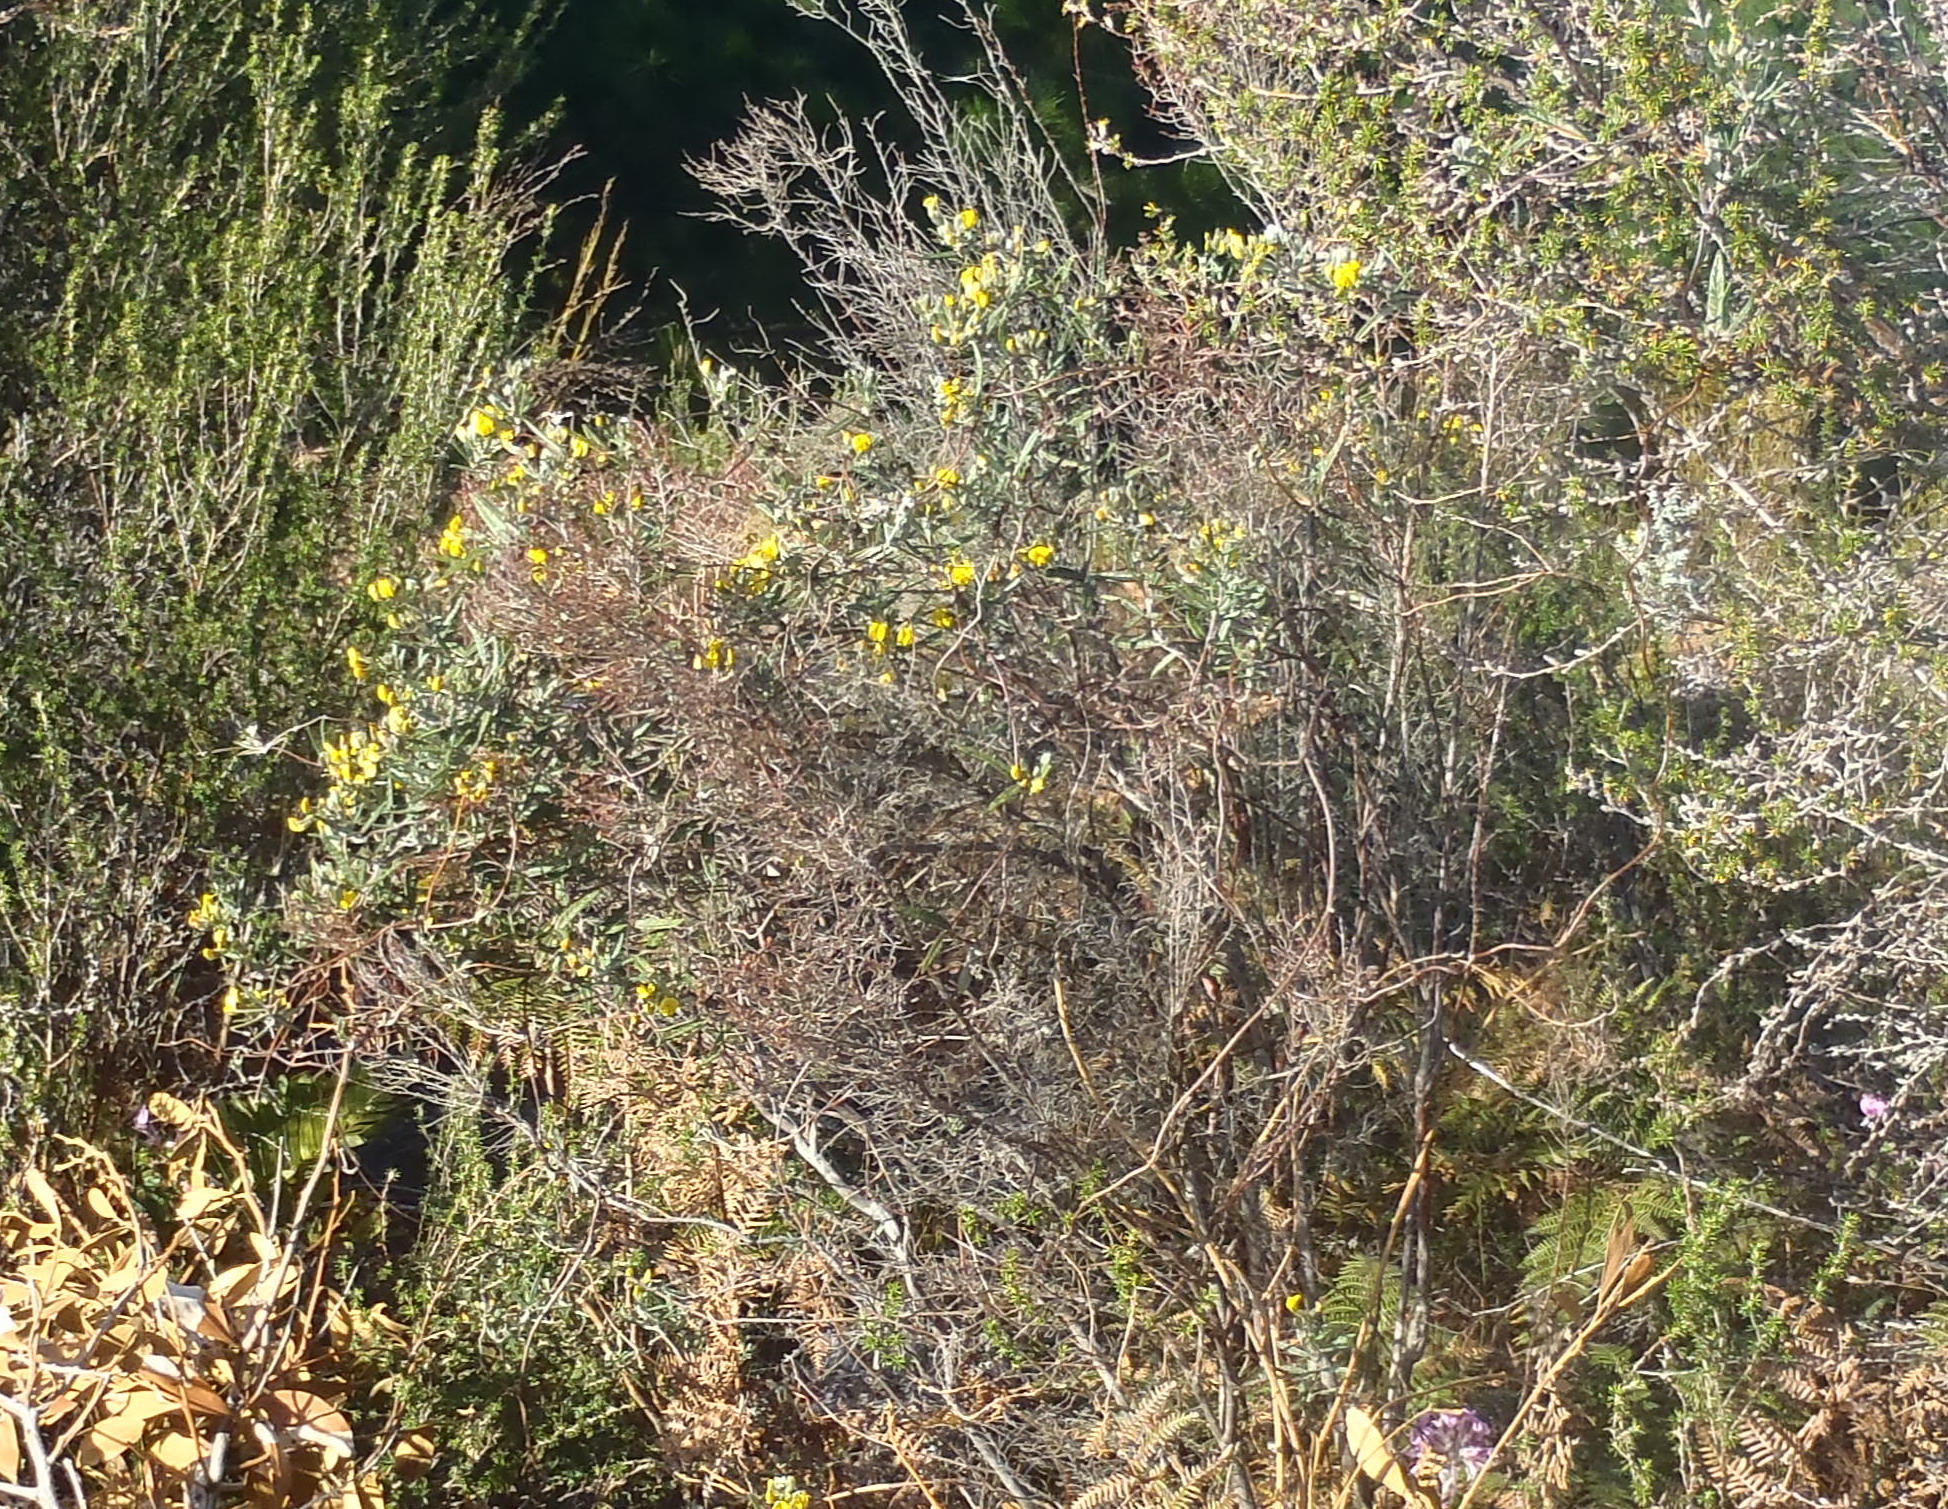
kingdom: Plantae
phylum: Tracheophyta
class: Magnoliopsida
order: Fabales
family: Fabaceae
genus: Rhynchosia
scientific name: Rhynchosia chrysoscias
